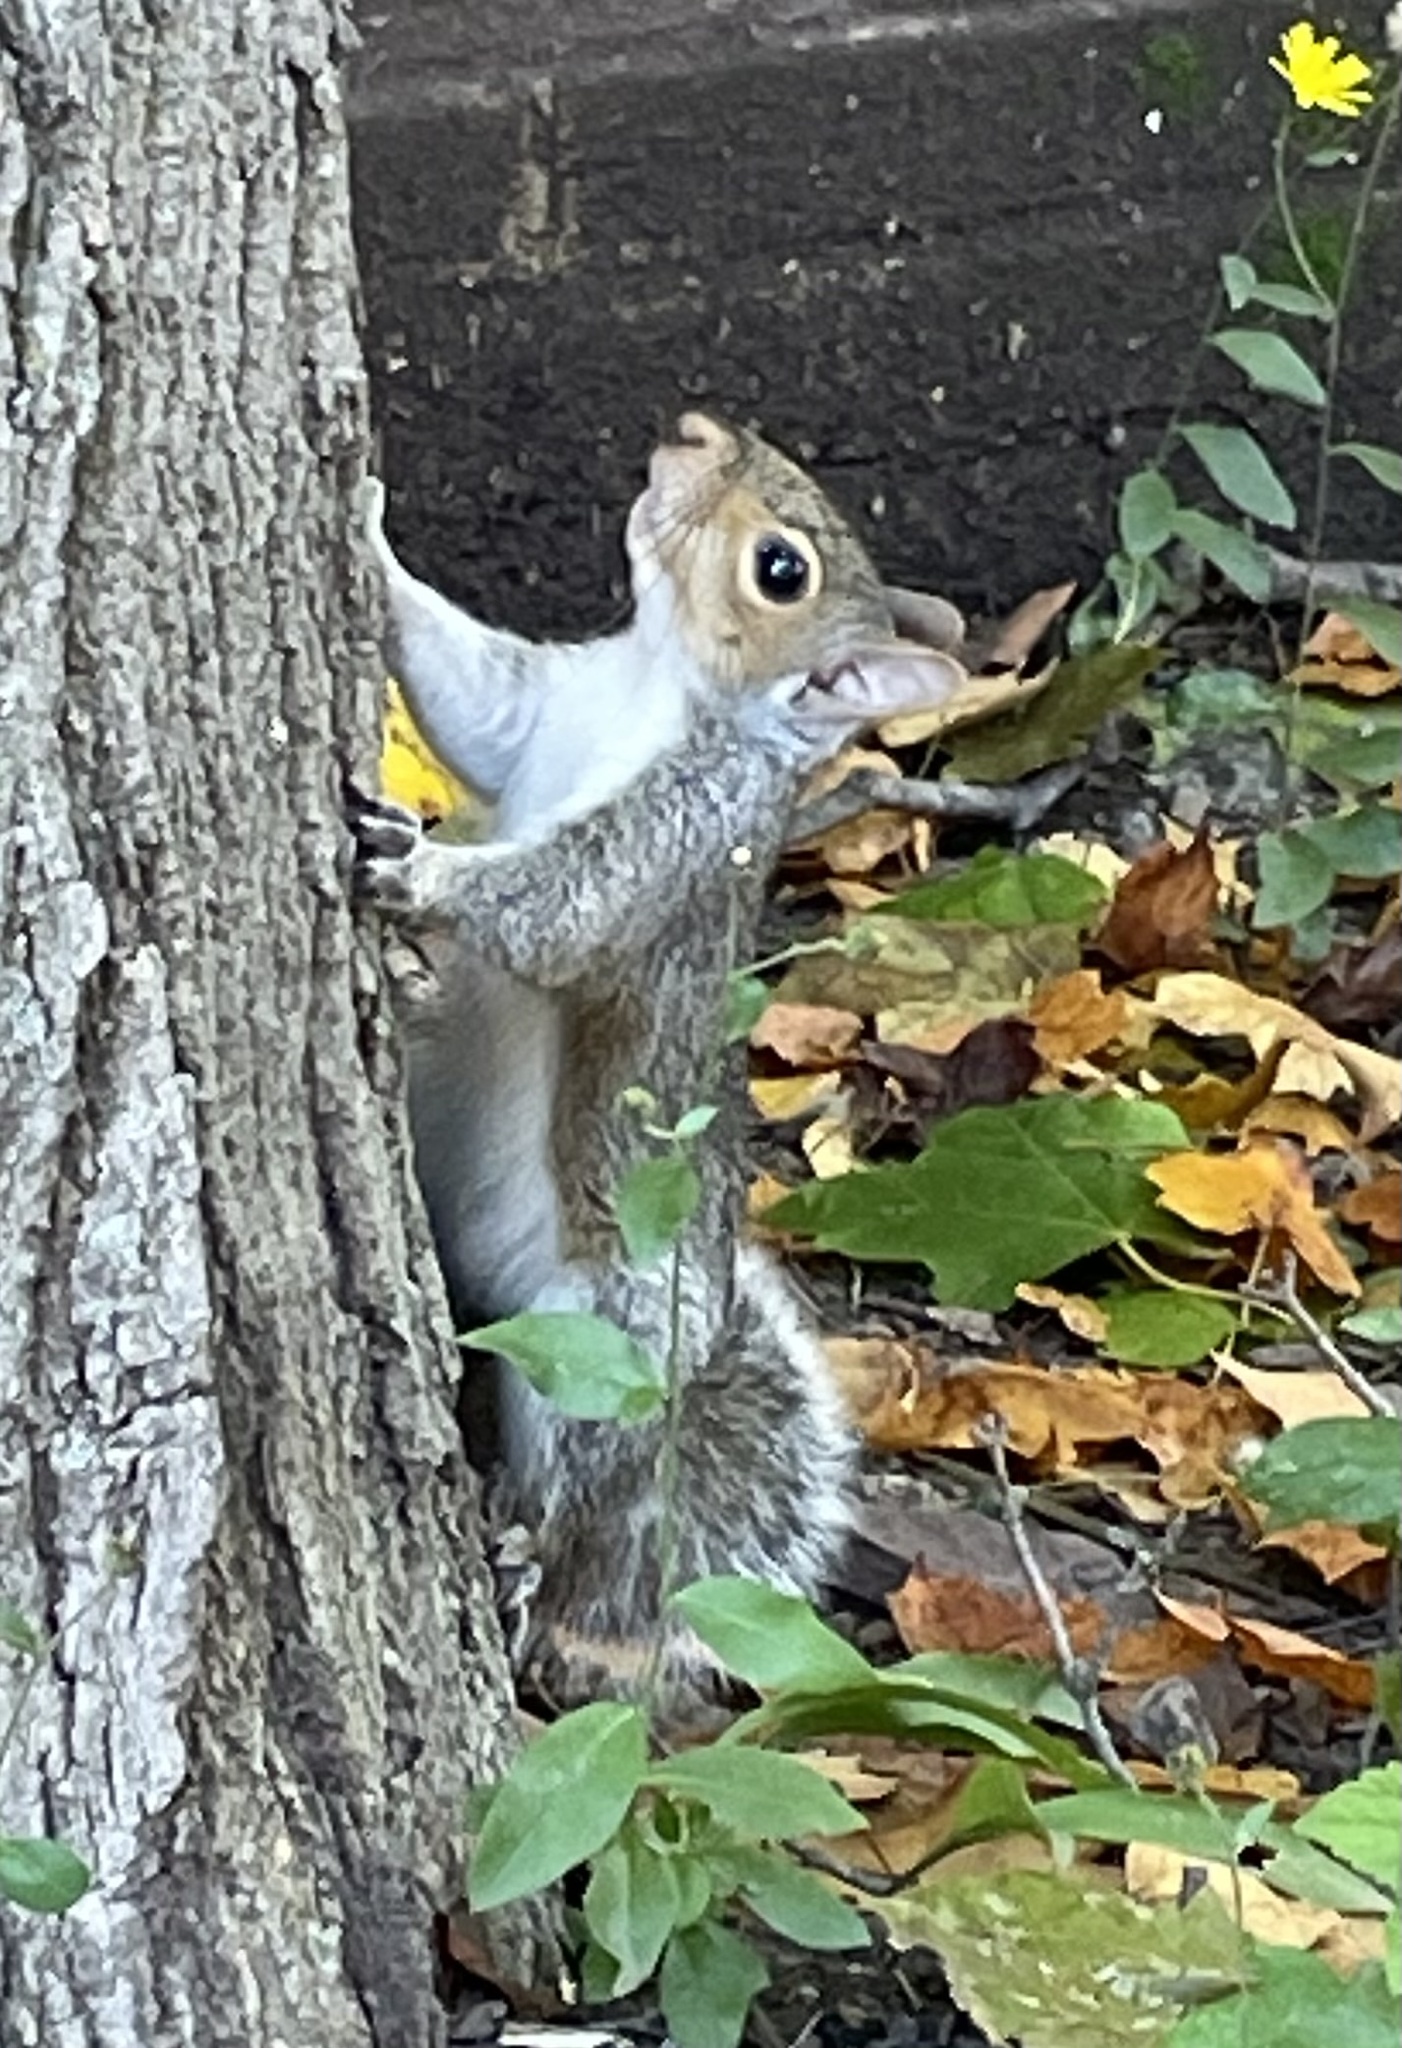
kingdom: Animalia
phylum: Chordata
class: Mammalia
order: Rodentia
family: Sciuridae
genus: Sciurus
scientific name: Sciurus carolinensis
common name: Eastern gray squirrel
